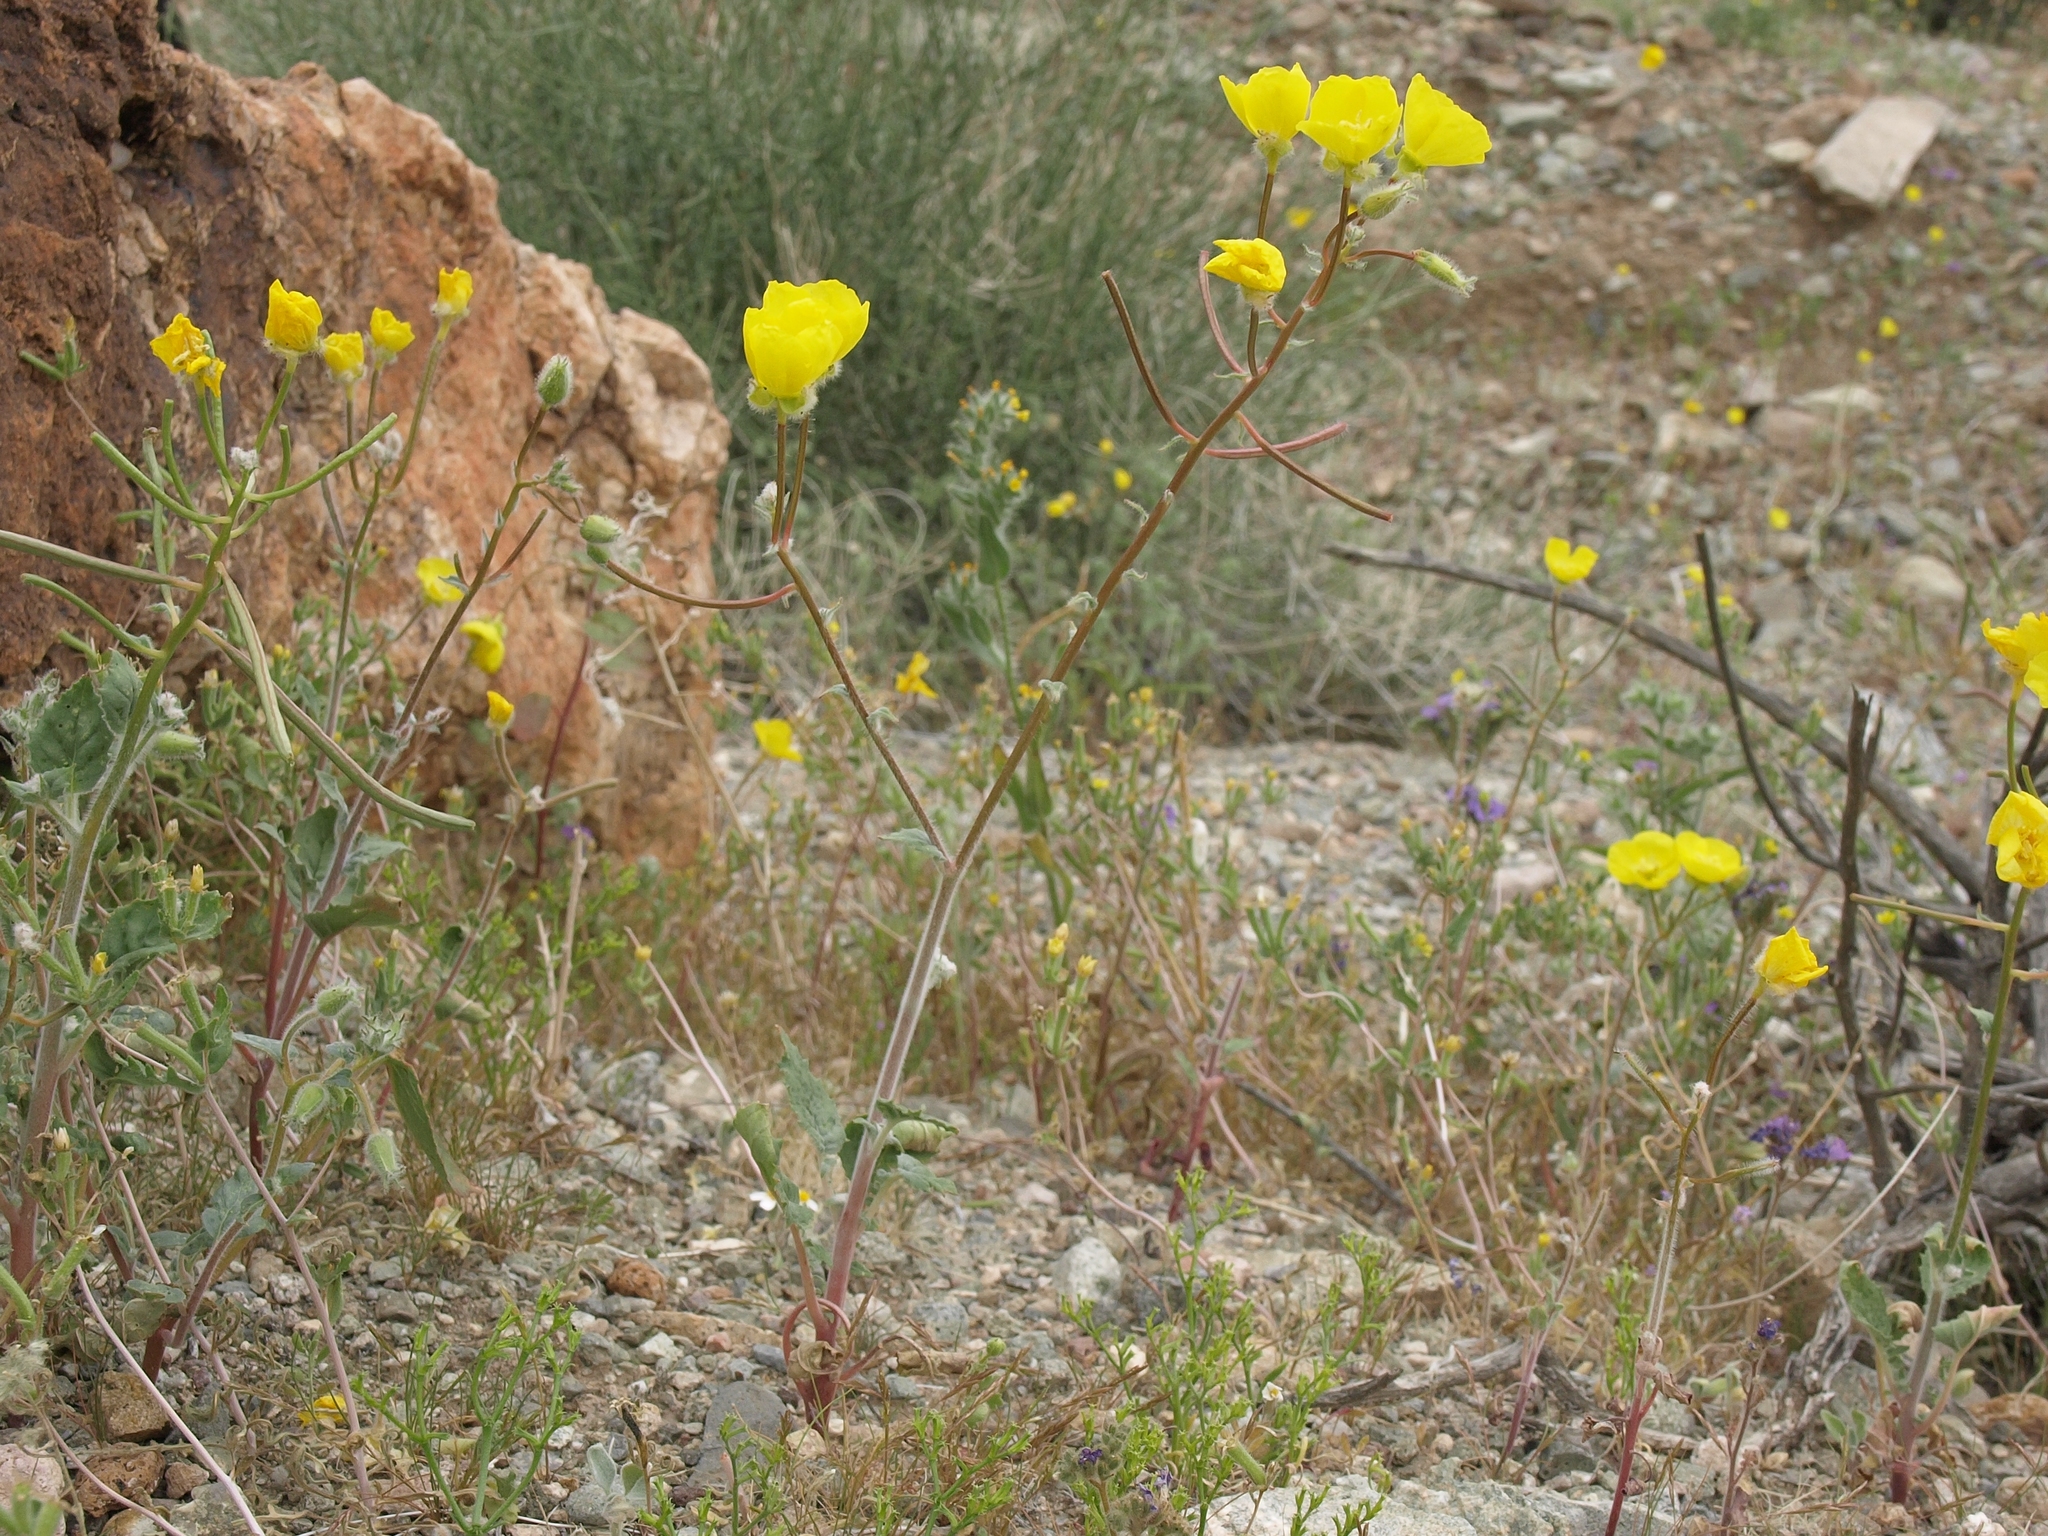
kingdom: Plantae
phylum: Tracheophyta
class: Magnoliopsida
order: Myrtales
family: Onagraceae
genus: Chylismia
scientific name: Chylismia brevipes
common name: Yellow cups
